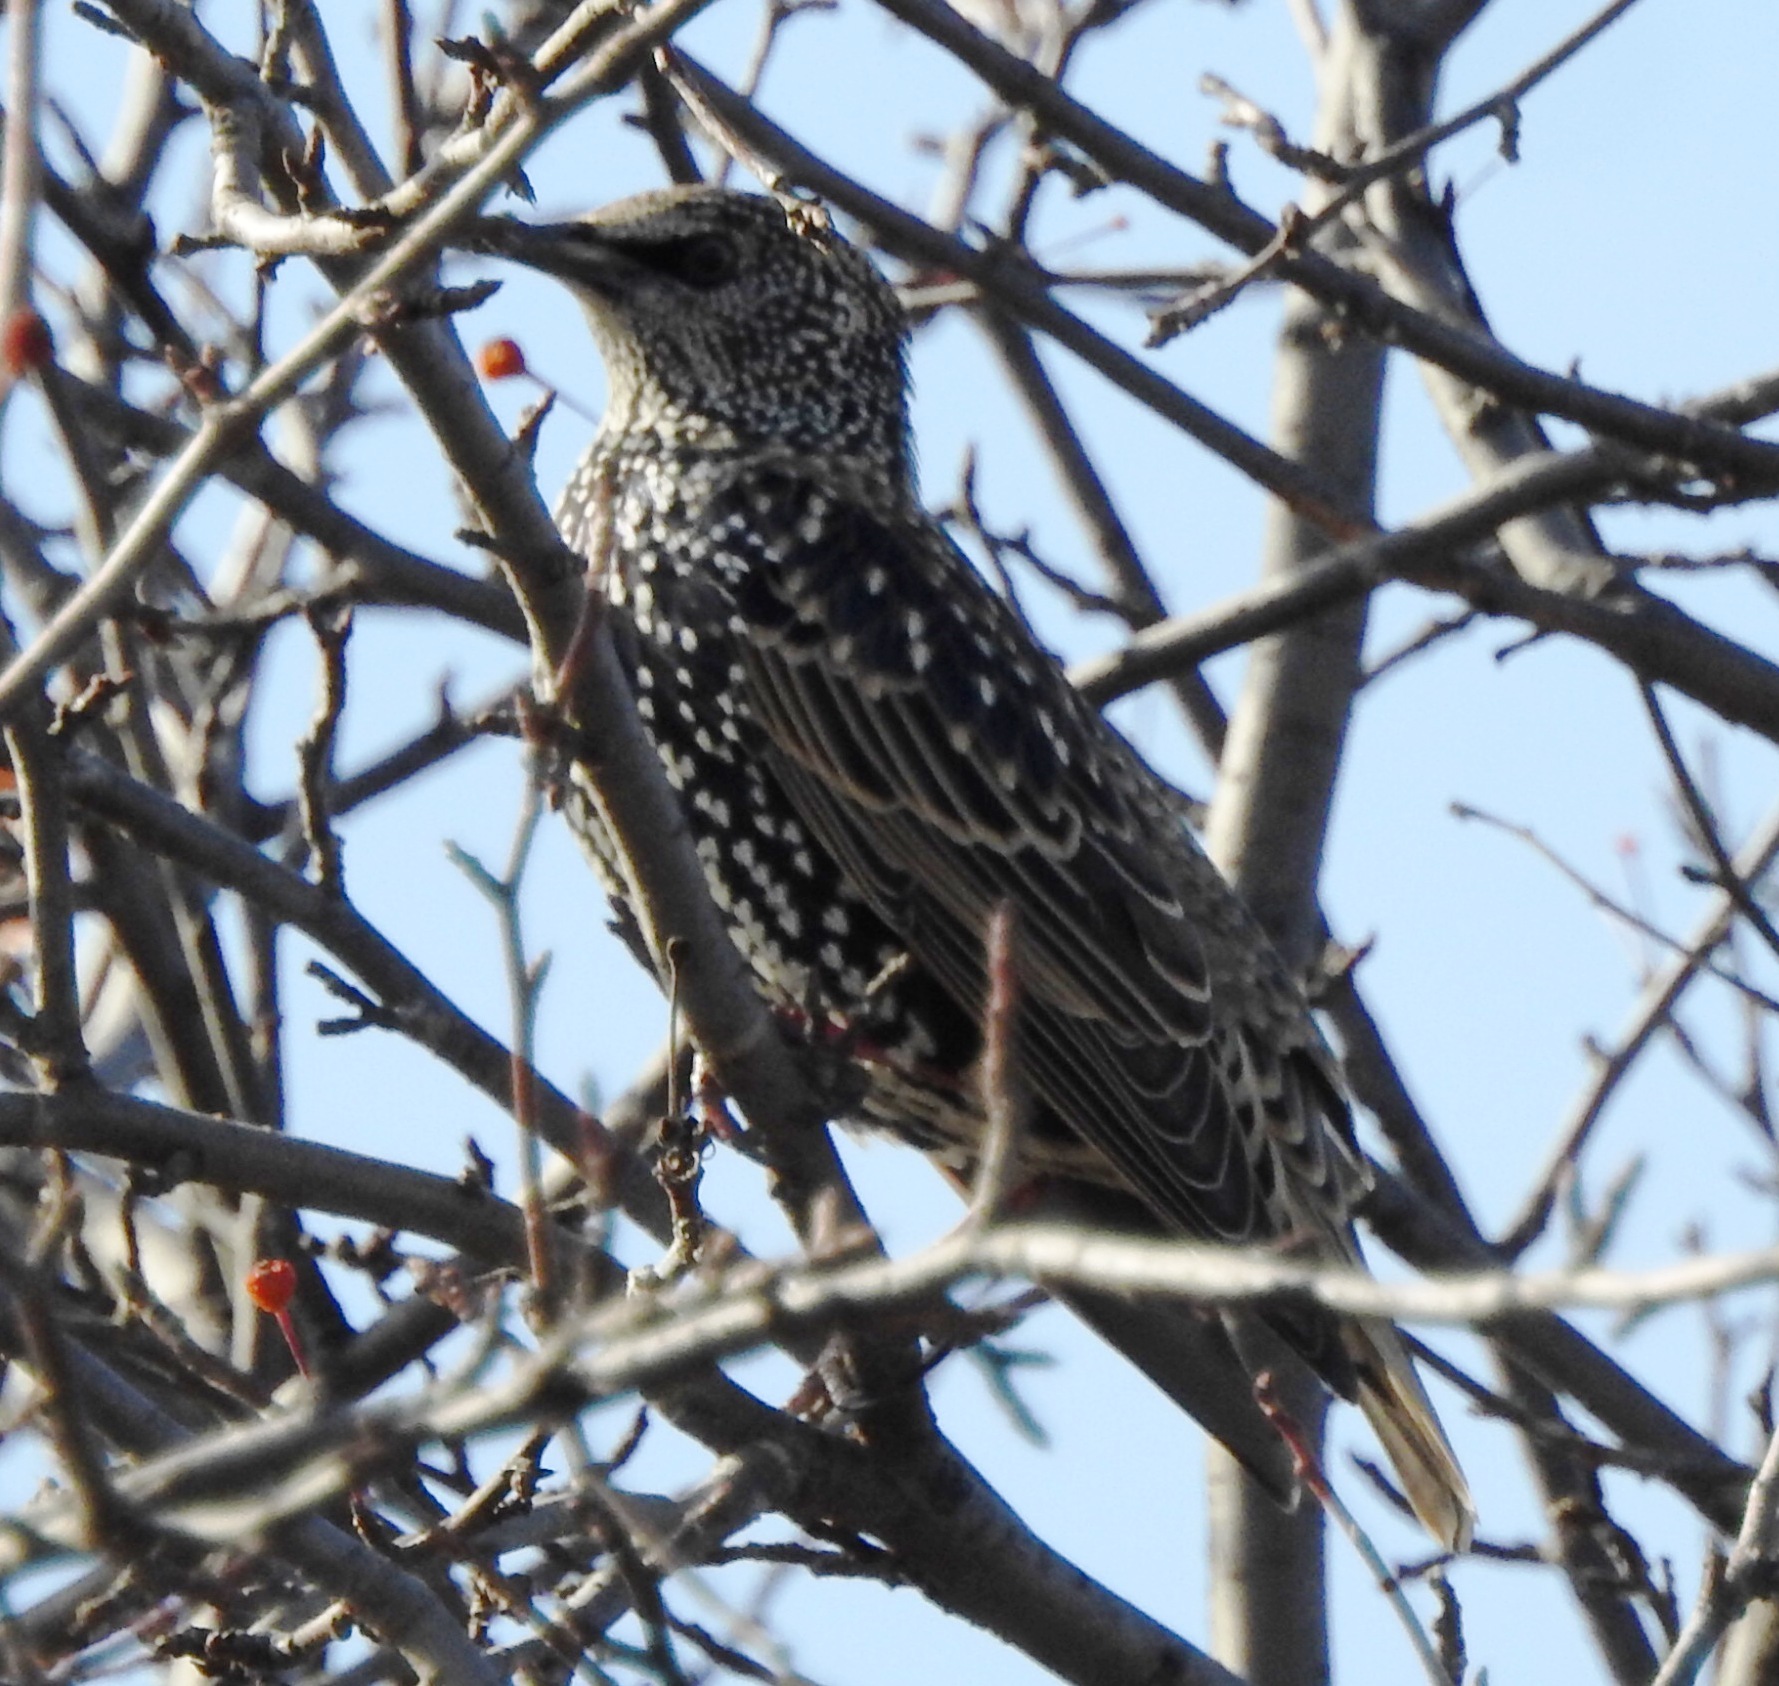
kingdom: Animalia
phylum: Chordata
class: Aves
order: Passeriformes
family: Sturnidae
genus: Sturnus
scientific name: Sturnus vulgaris
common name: Common starling
